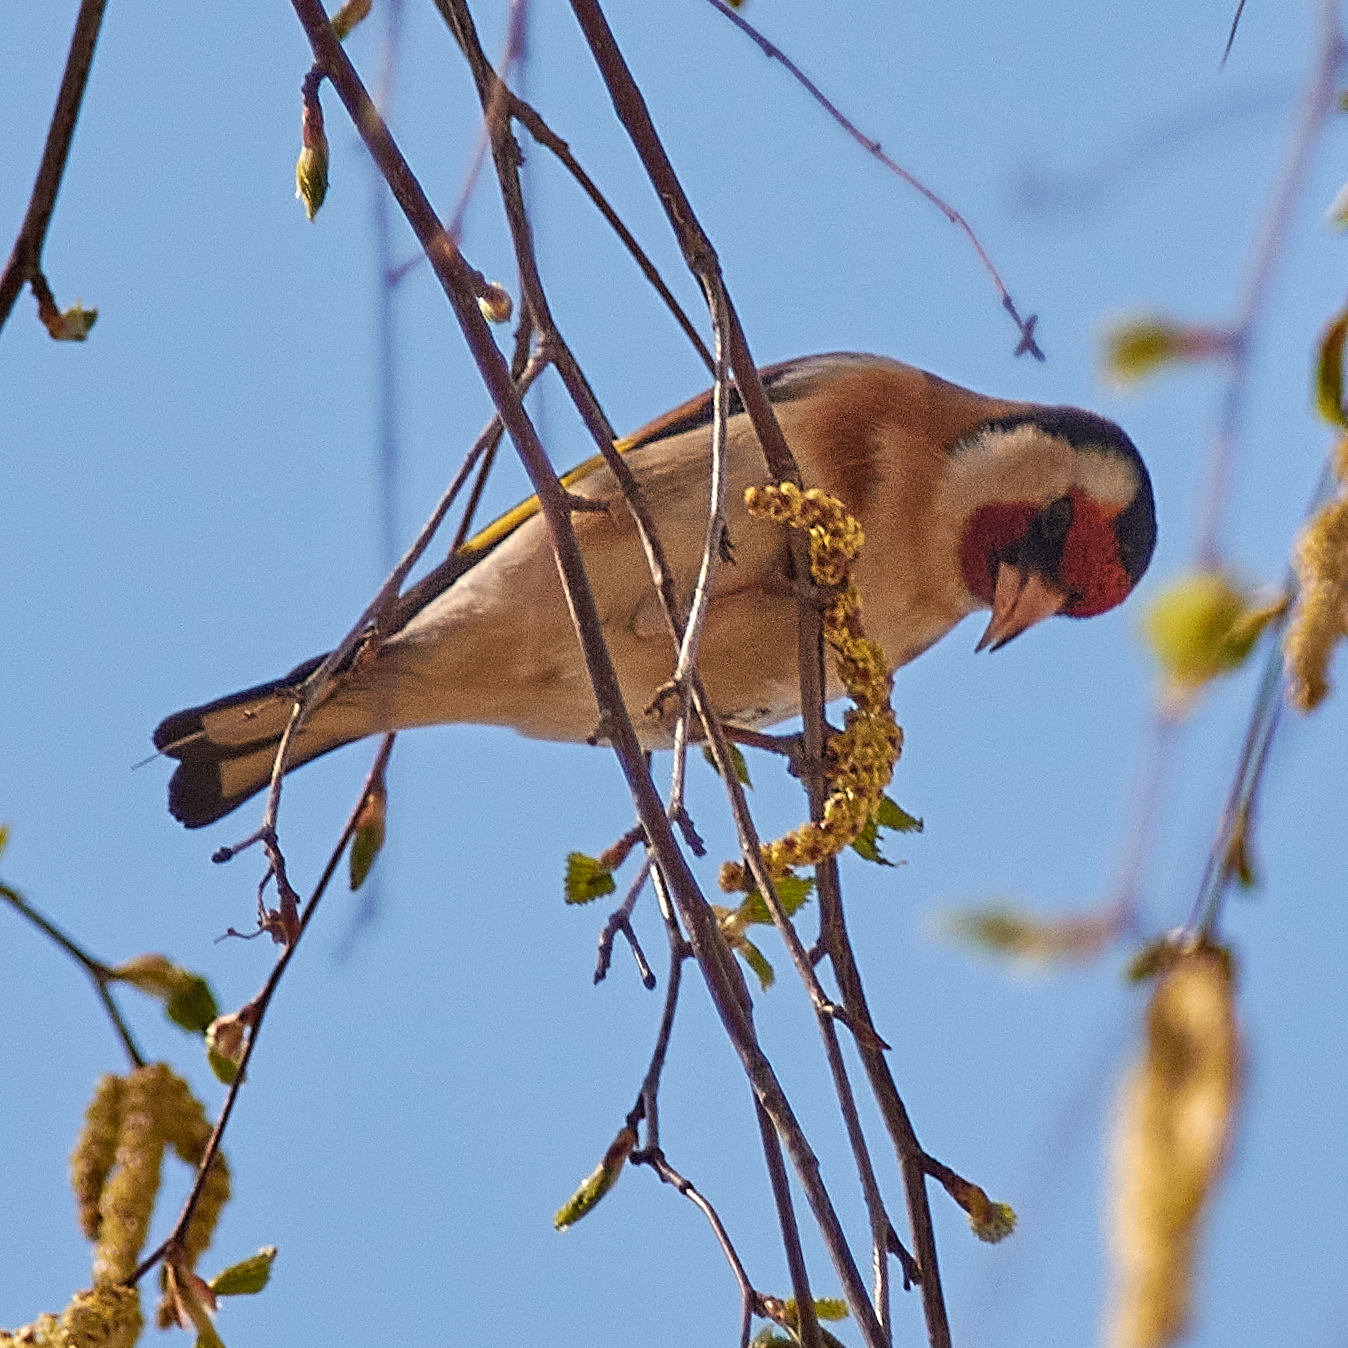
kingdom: Animalia
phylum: Chordata
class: Aves
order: Passeriformes
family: Fringillidae
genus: Carduelis
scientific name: Carduelis carduelis
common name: European goldfinch
